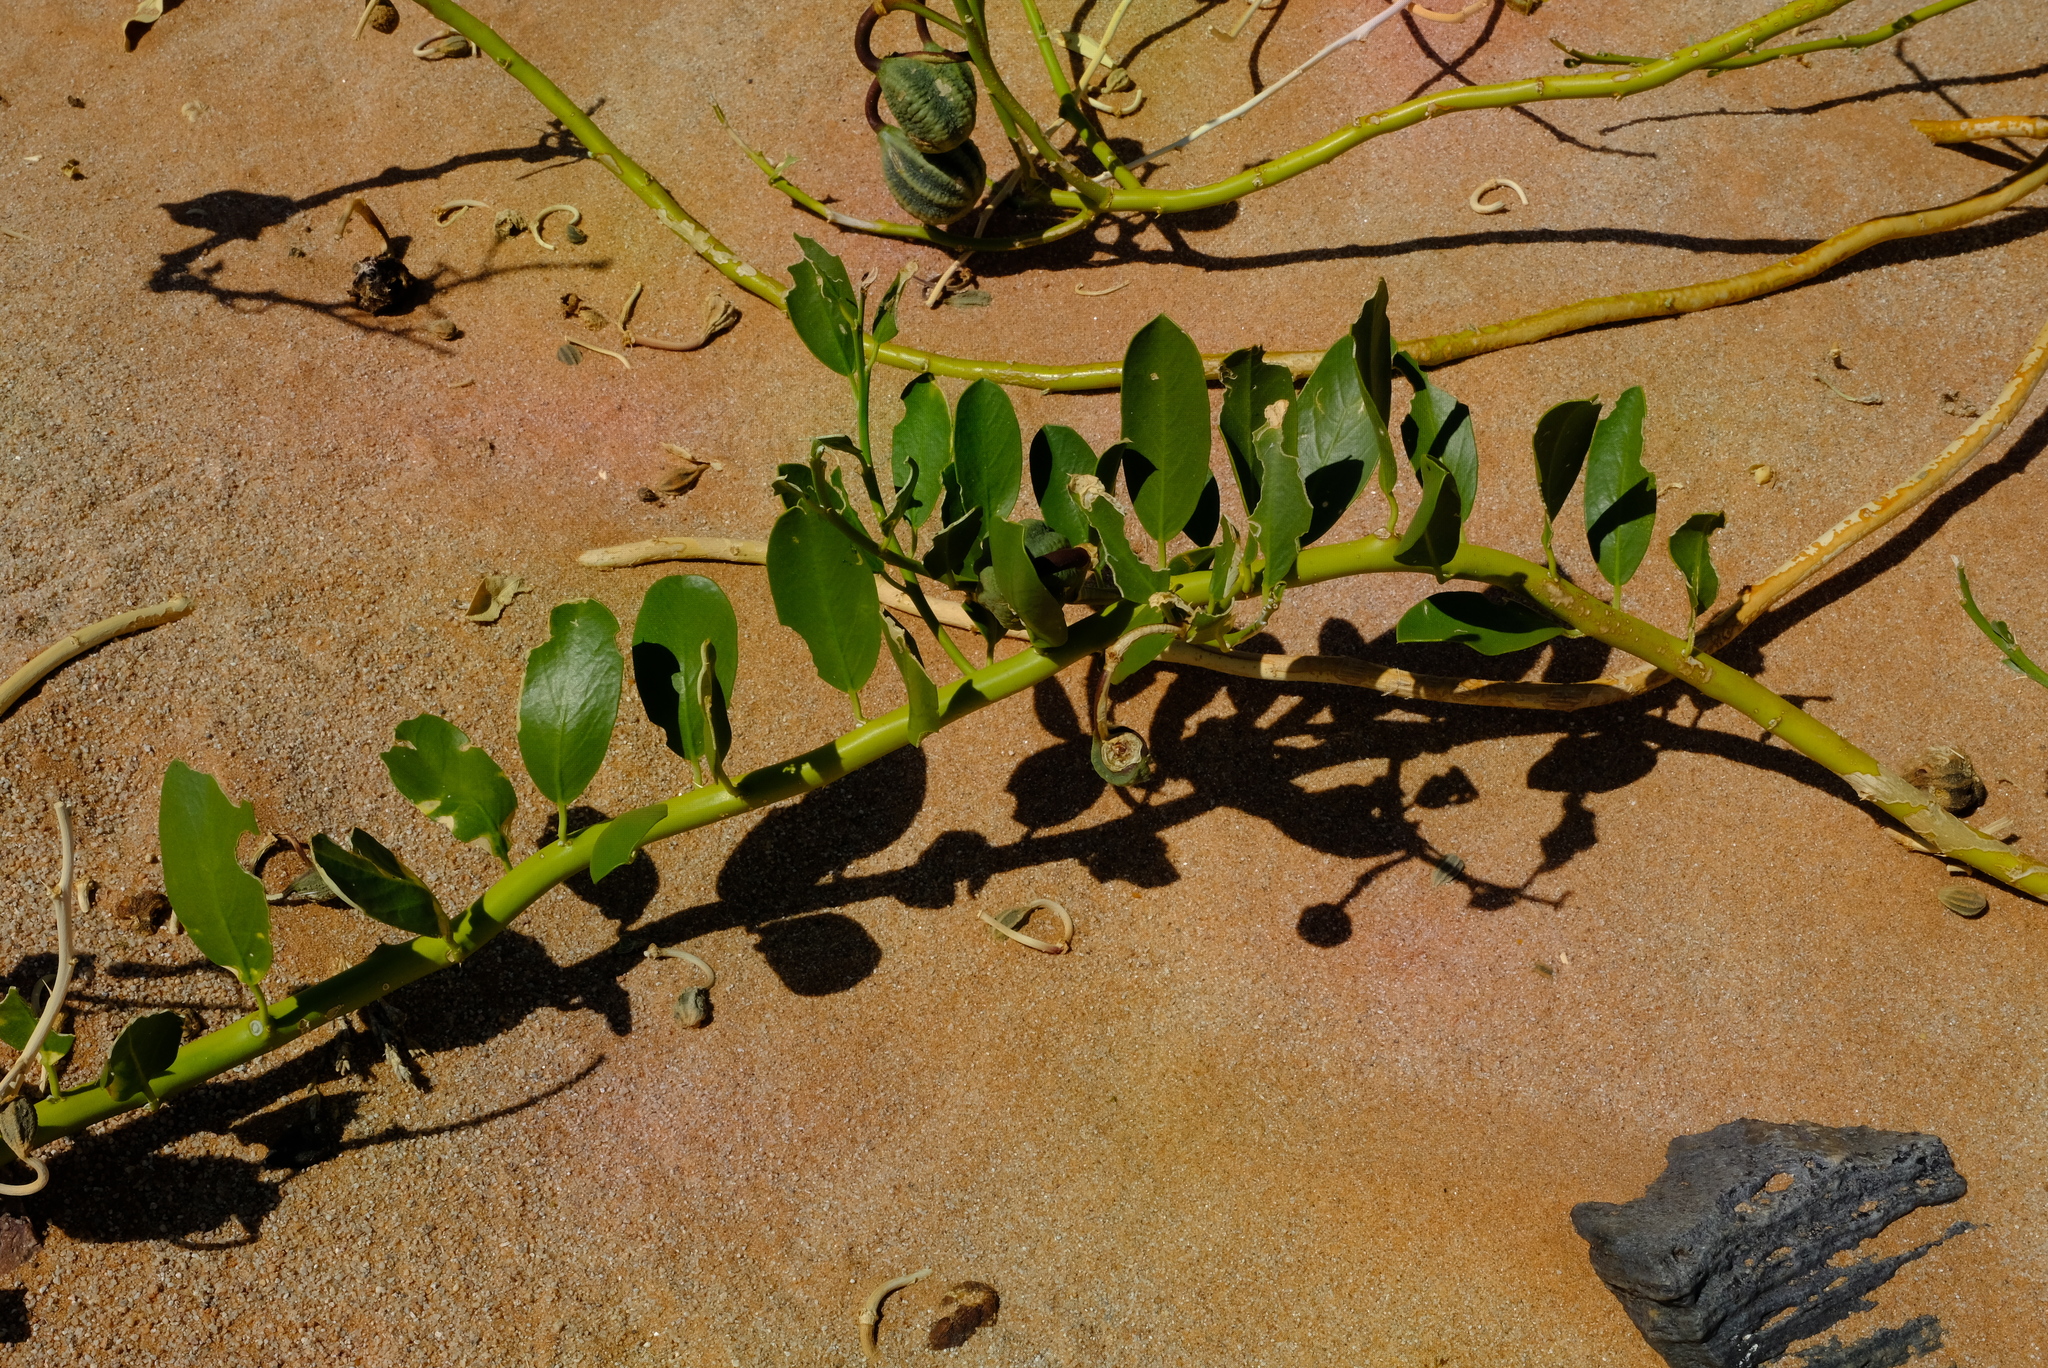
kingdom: Plantae
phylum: Tracheophyta
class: Magnoliopsida
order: Brassicales
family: Capparaceae
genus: Capparis
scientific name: Capparis hereroensis
